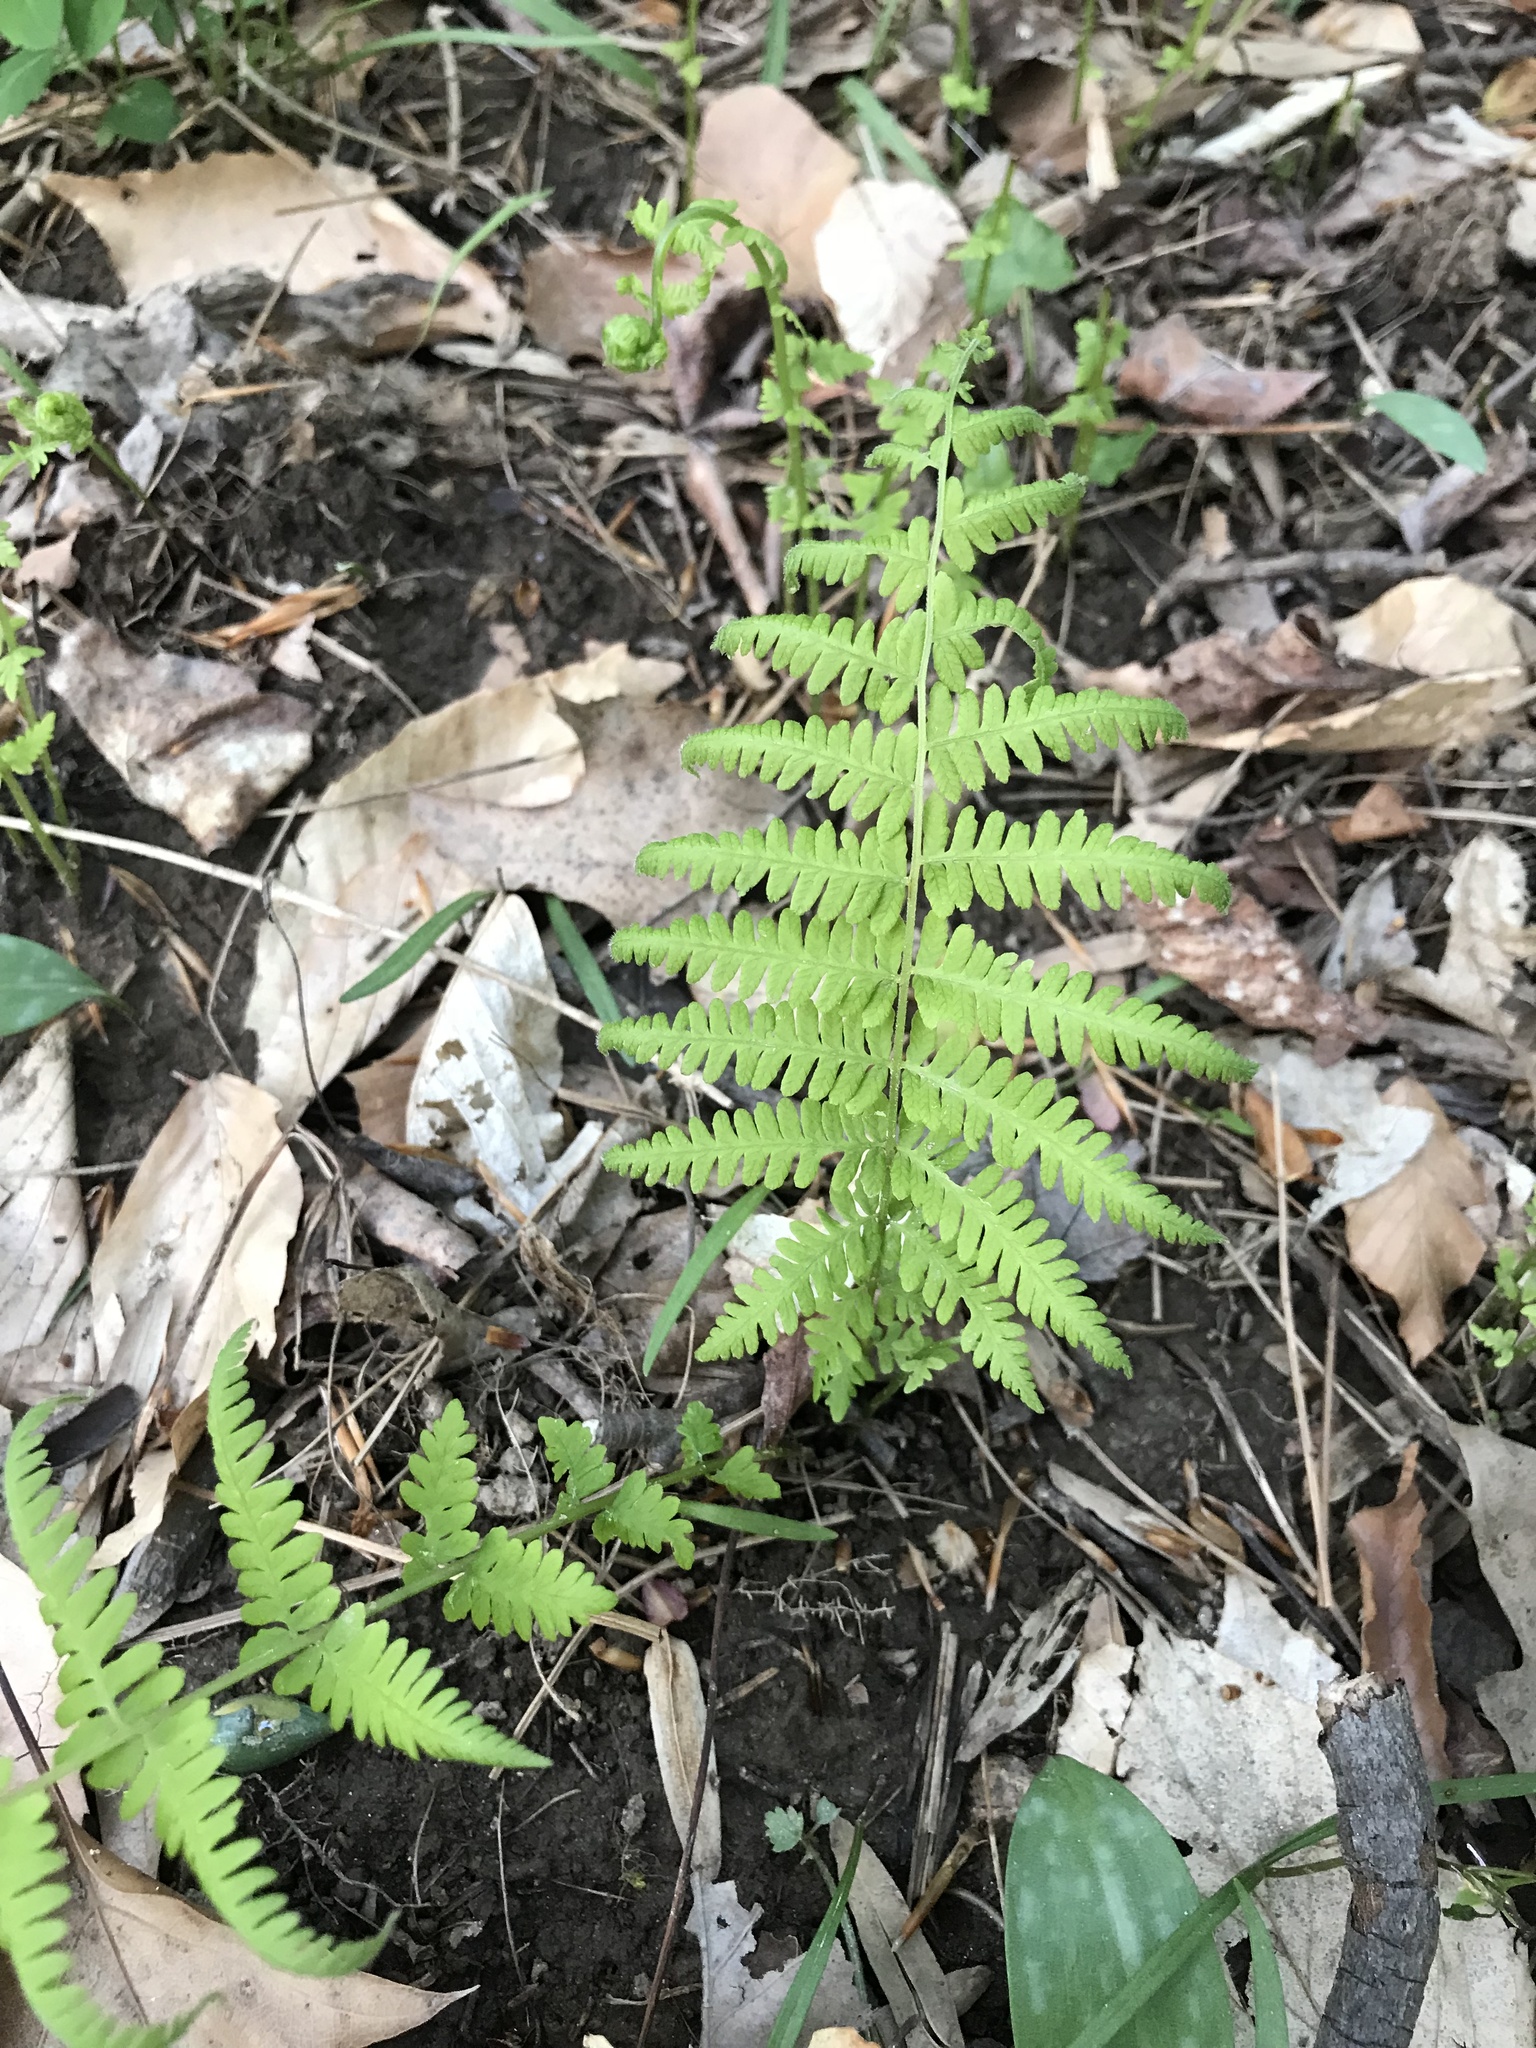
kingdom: Plantae
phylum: Tracheophyta
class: Polypodiopsida
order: Polypodiales
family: Thelypteridaceae
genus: Amauropelta
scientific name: Amauropelta noveboracensis
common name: New york fern
